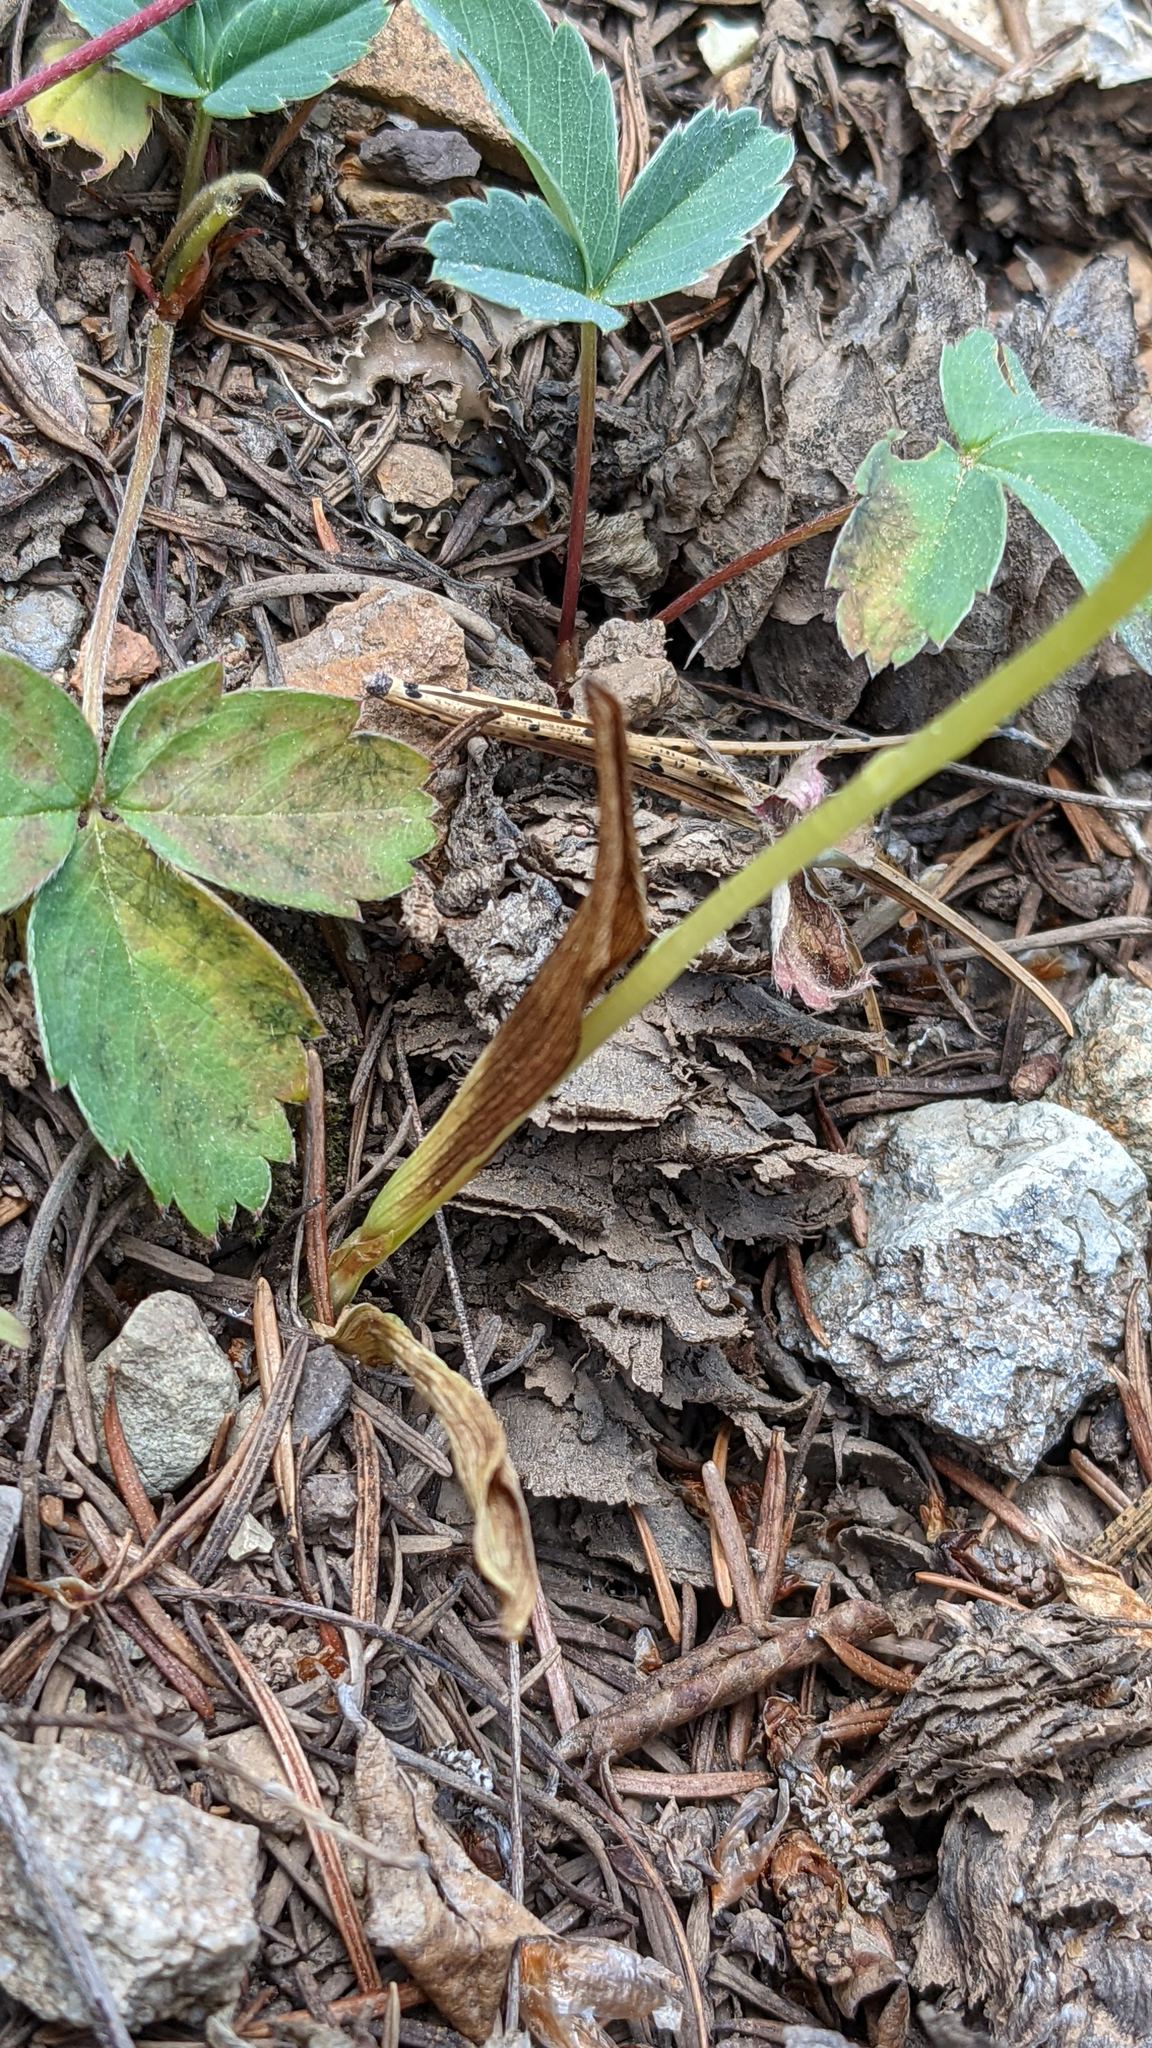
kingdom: Plantae
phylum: Tracheophyta
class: Liliopsida
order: Asparagales
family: Orchidaceae
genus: Platanthera
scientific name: Platanthera unalascensis
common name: Alaska bog orchid
